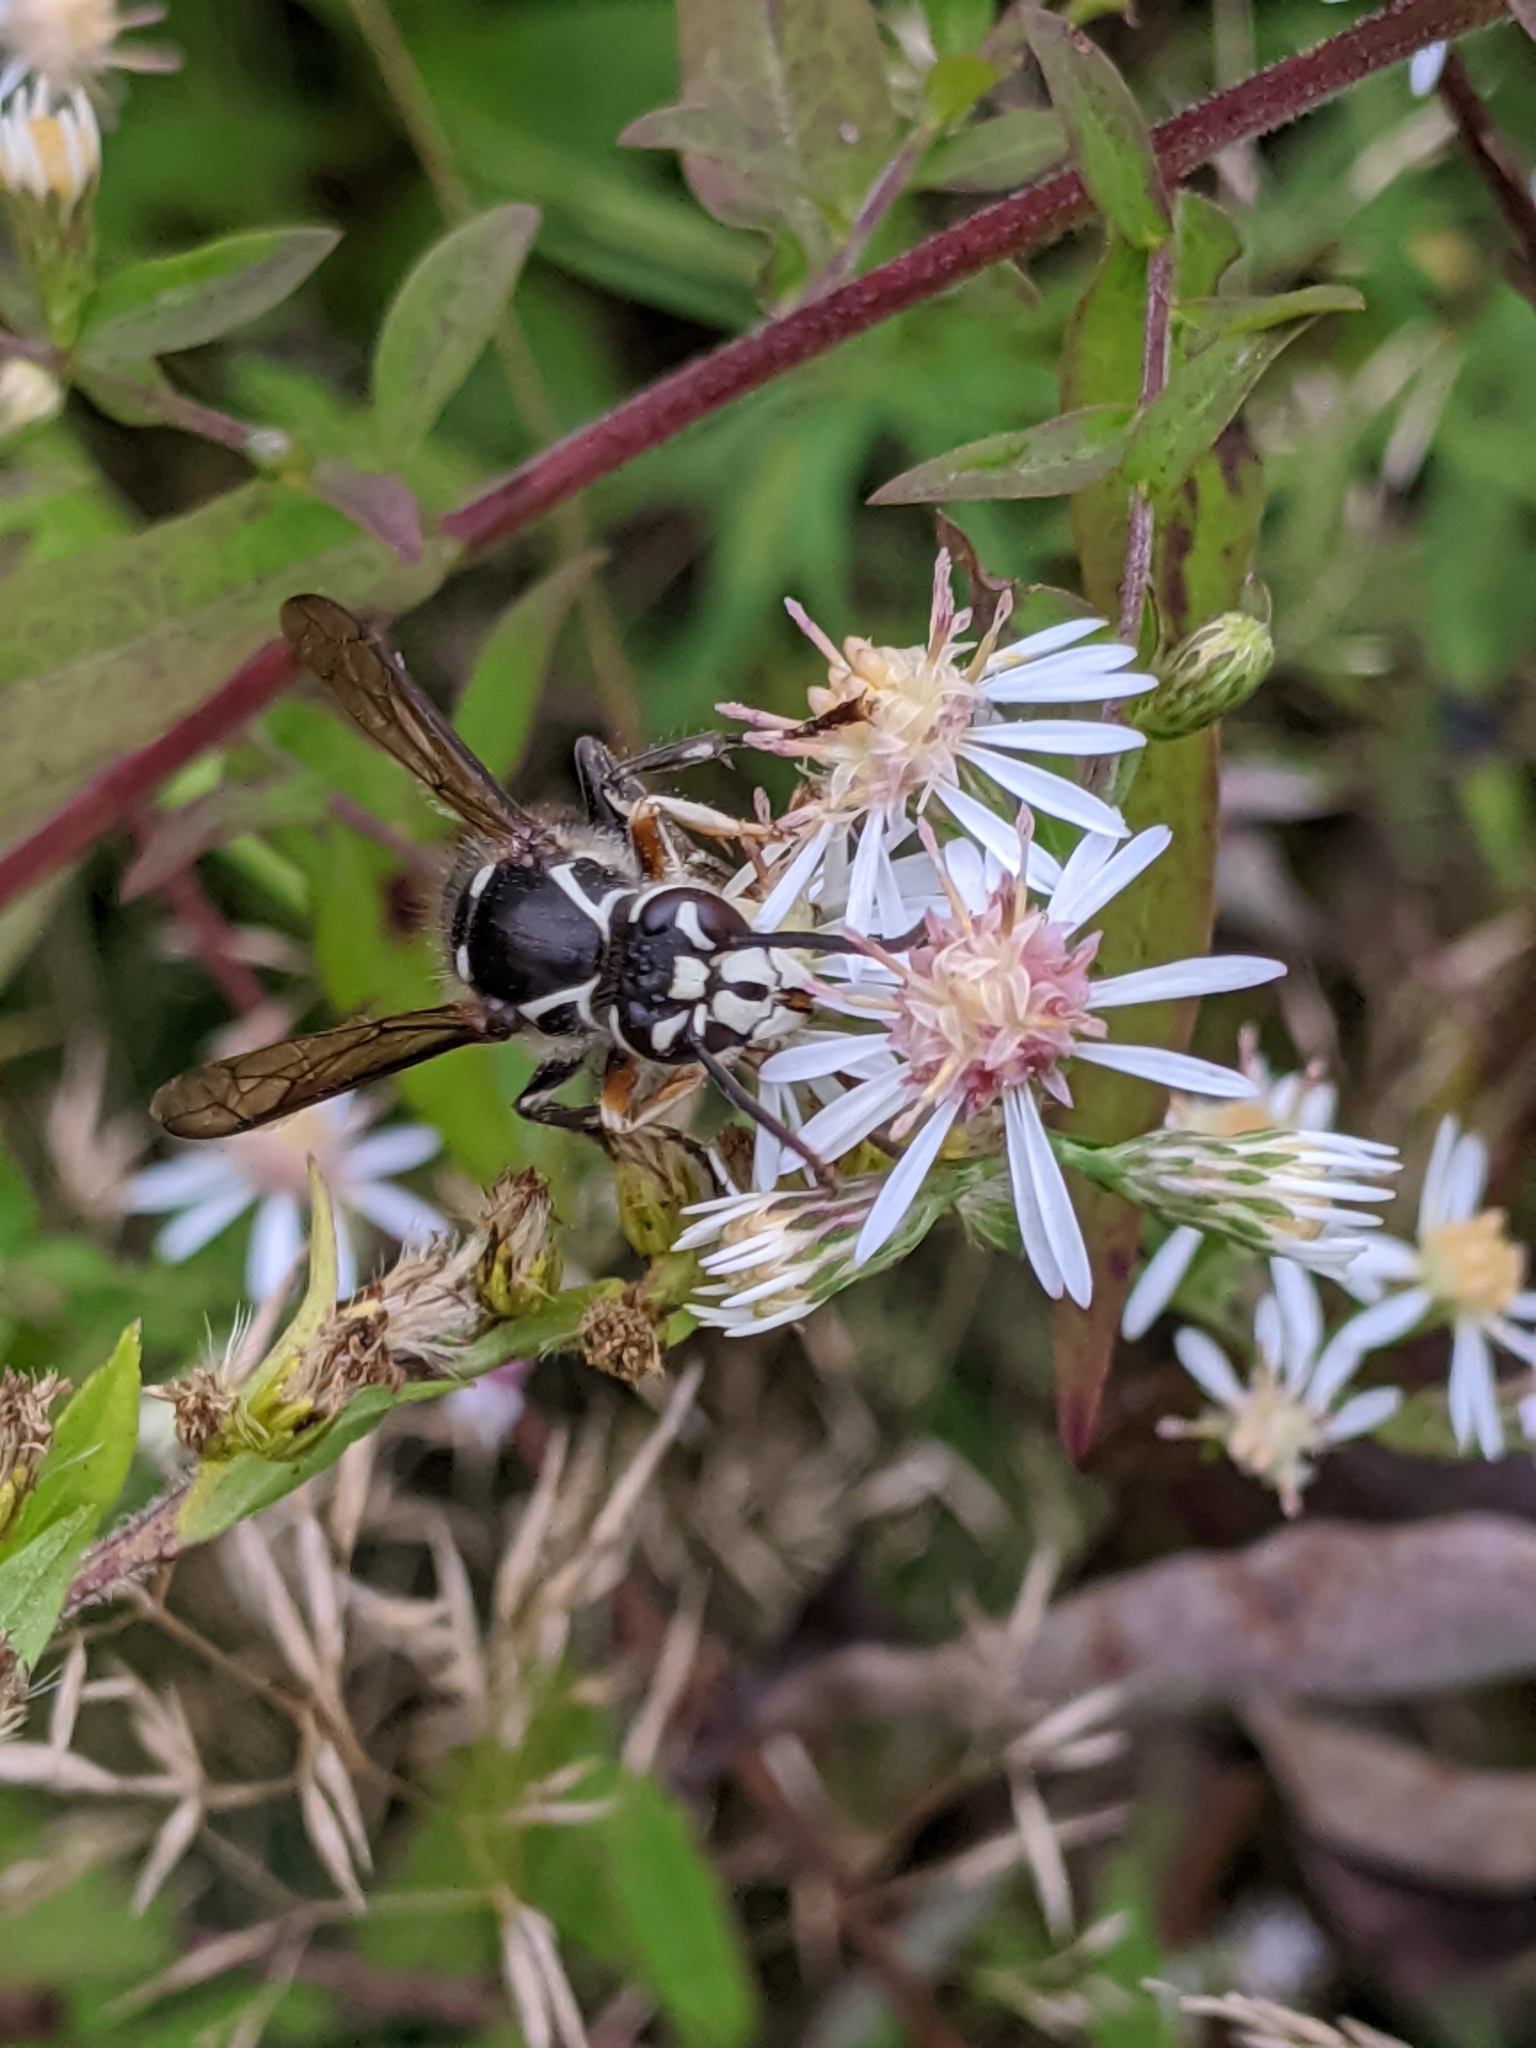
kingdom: Animalia
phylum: Arthropoda
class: Insecta
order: Hymenoptera
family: Vespidae
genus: Dolichovespula
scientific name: Dolichovespula maculata
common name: Bald-faced hornet
